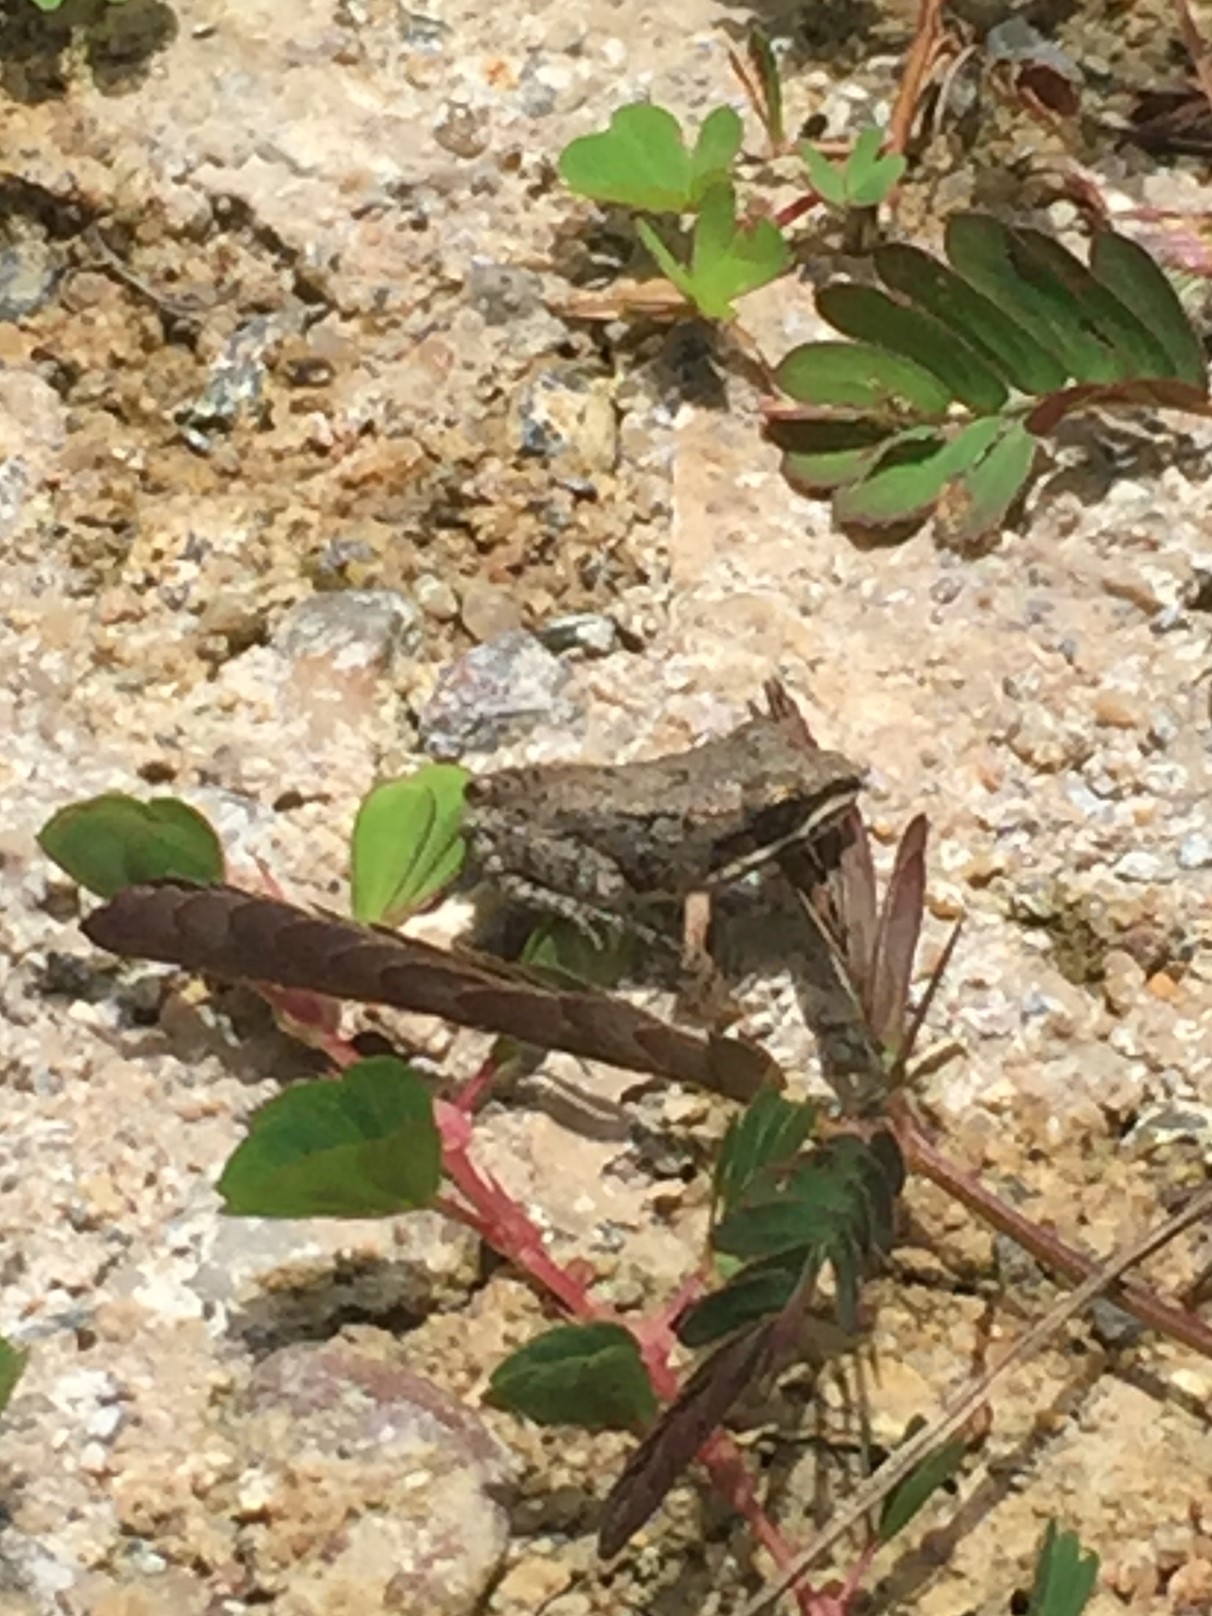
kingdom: Animalia
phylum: Chordata
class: Amphibia
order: Anura
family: Leptodactylidae
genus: Leptodactylus
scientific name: Leptodactylus fragilis
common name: Mexican white-lipped frog
